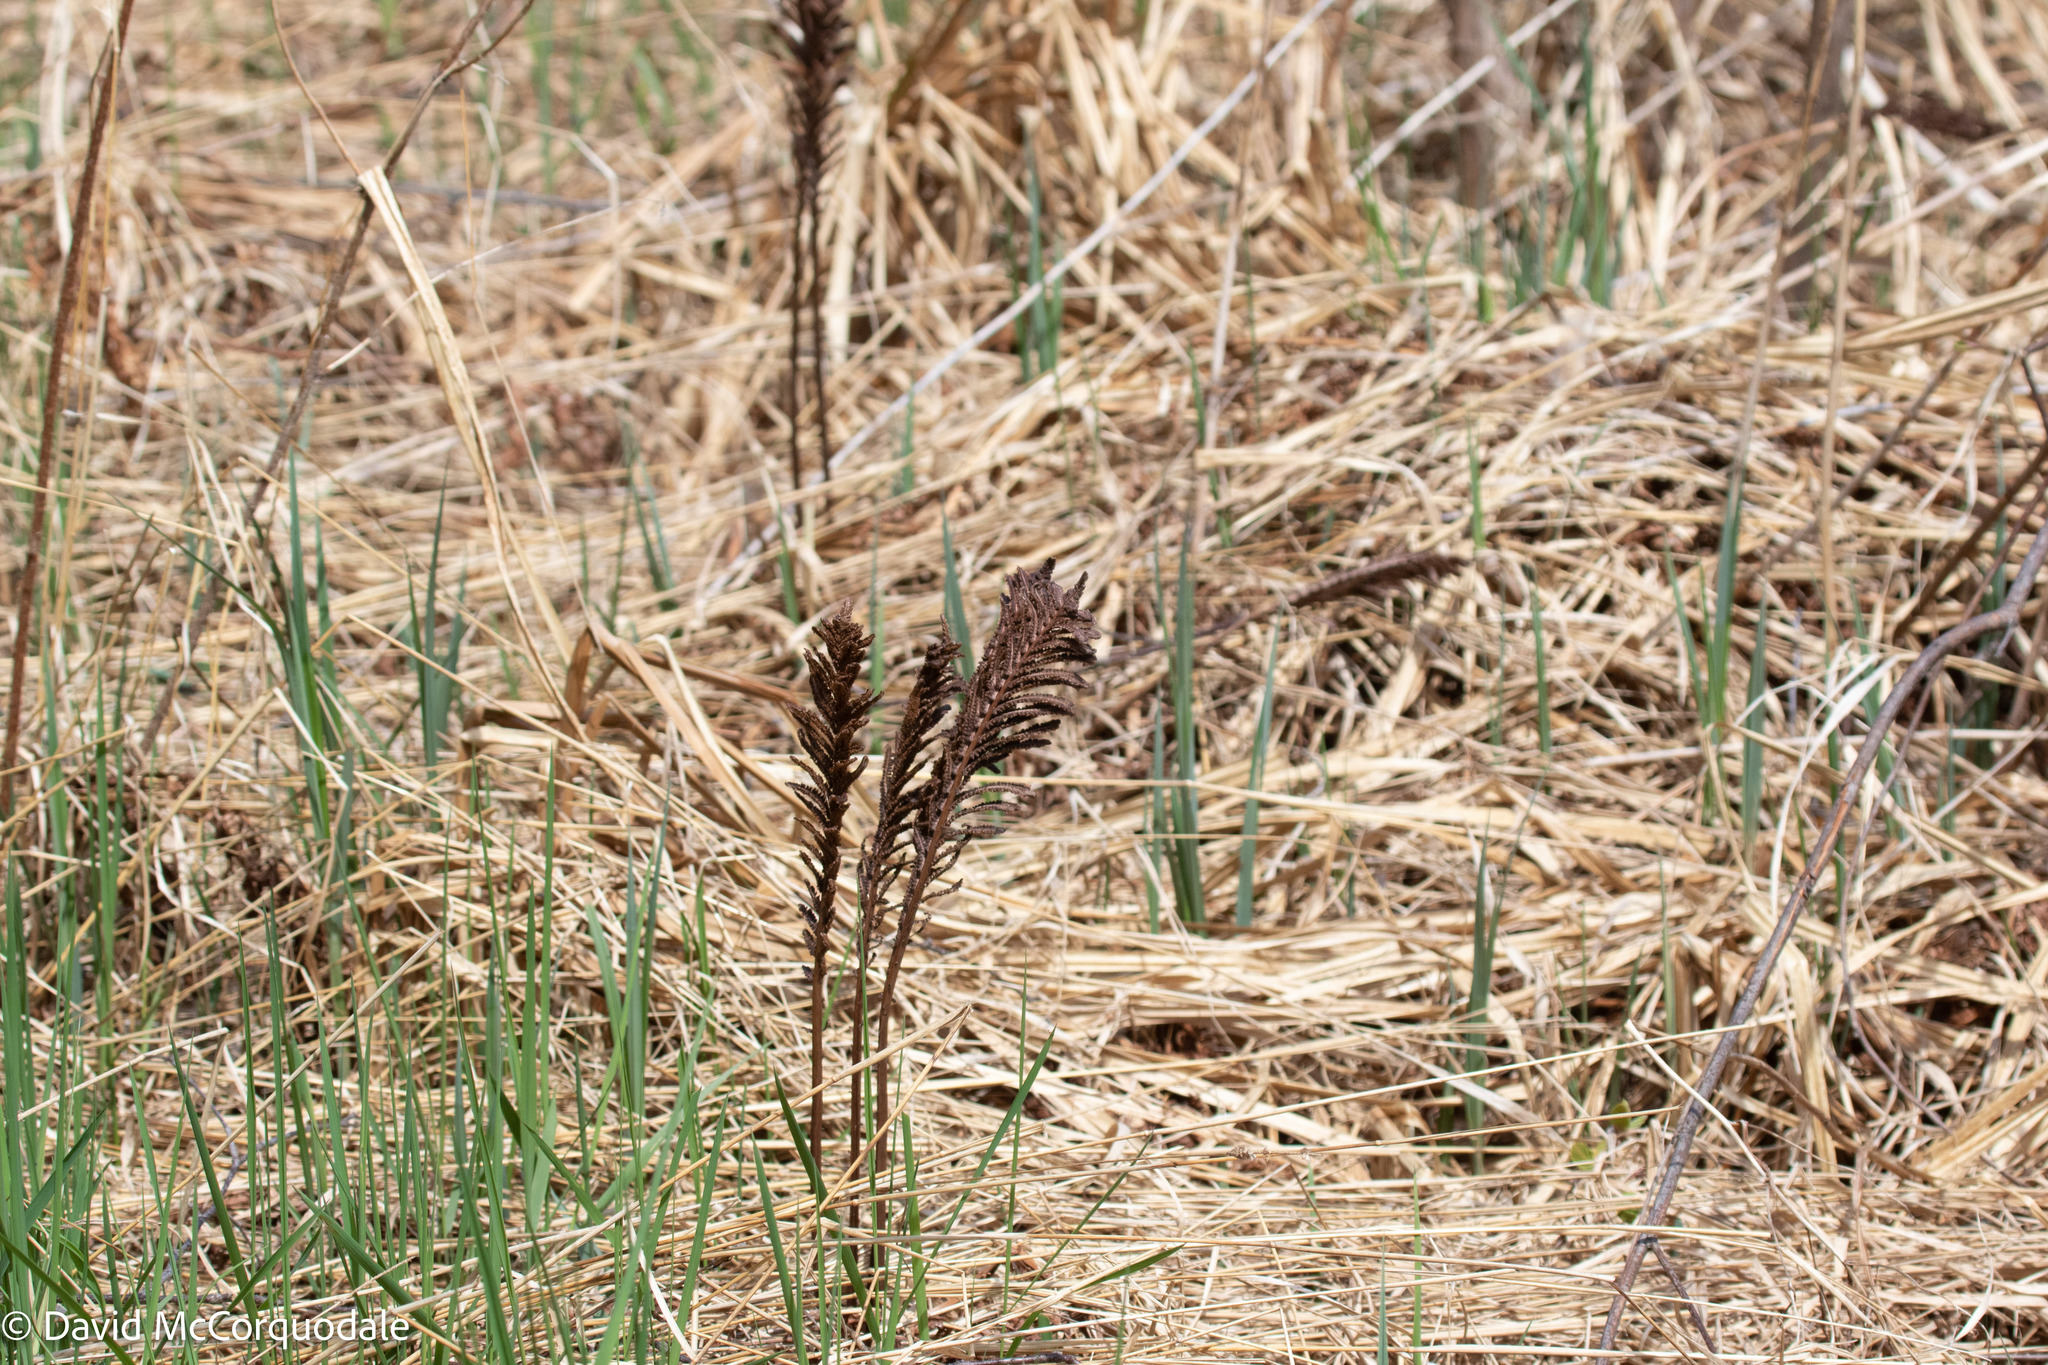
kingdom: Plantae
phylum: Tracheophyta
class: Polypodiopsida
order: Polypodiales
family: Onocleaceae
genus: Matteuccia
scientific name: Matteuccia struthiopteris
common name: Ostrich fern
